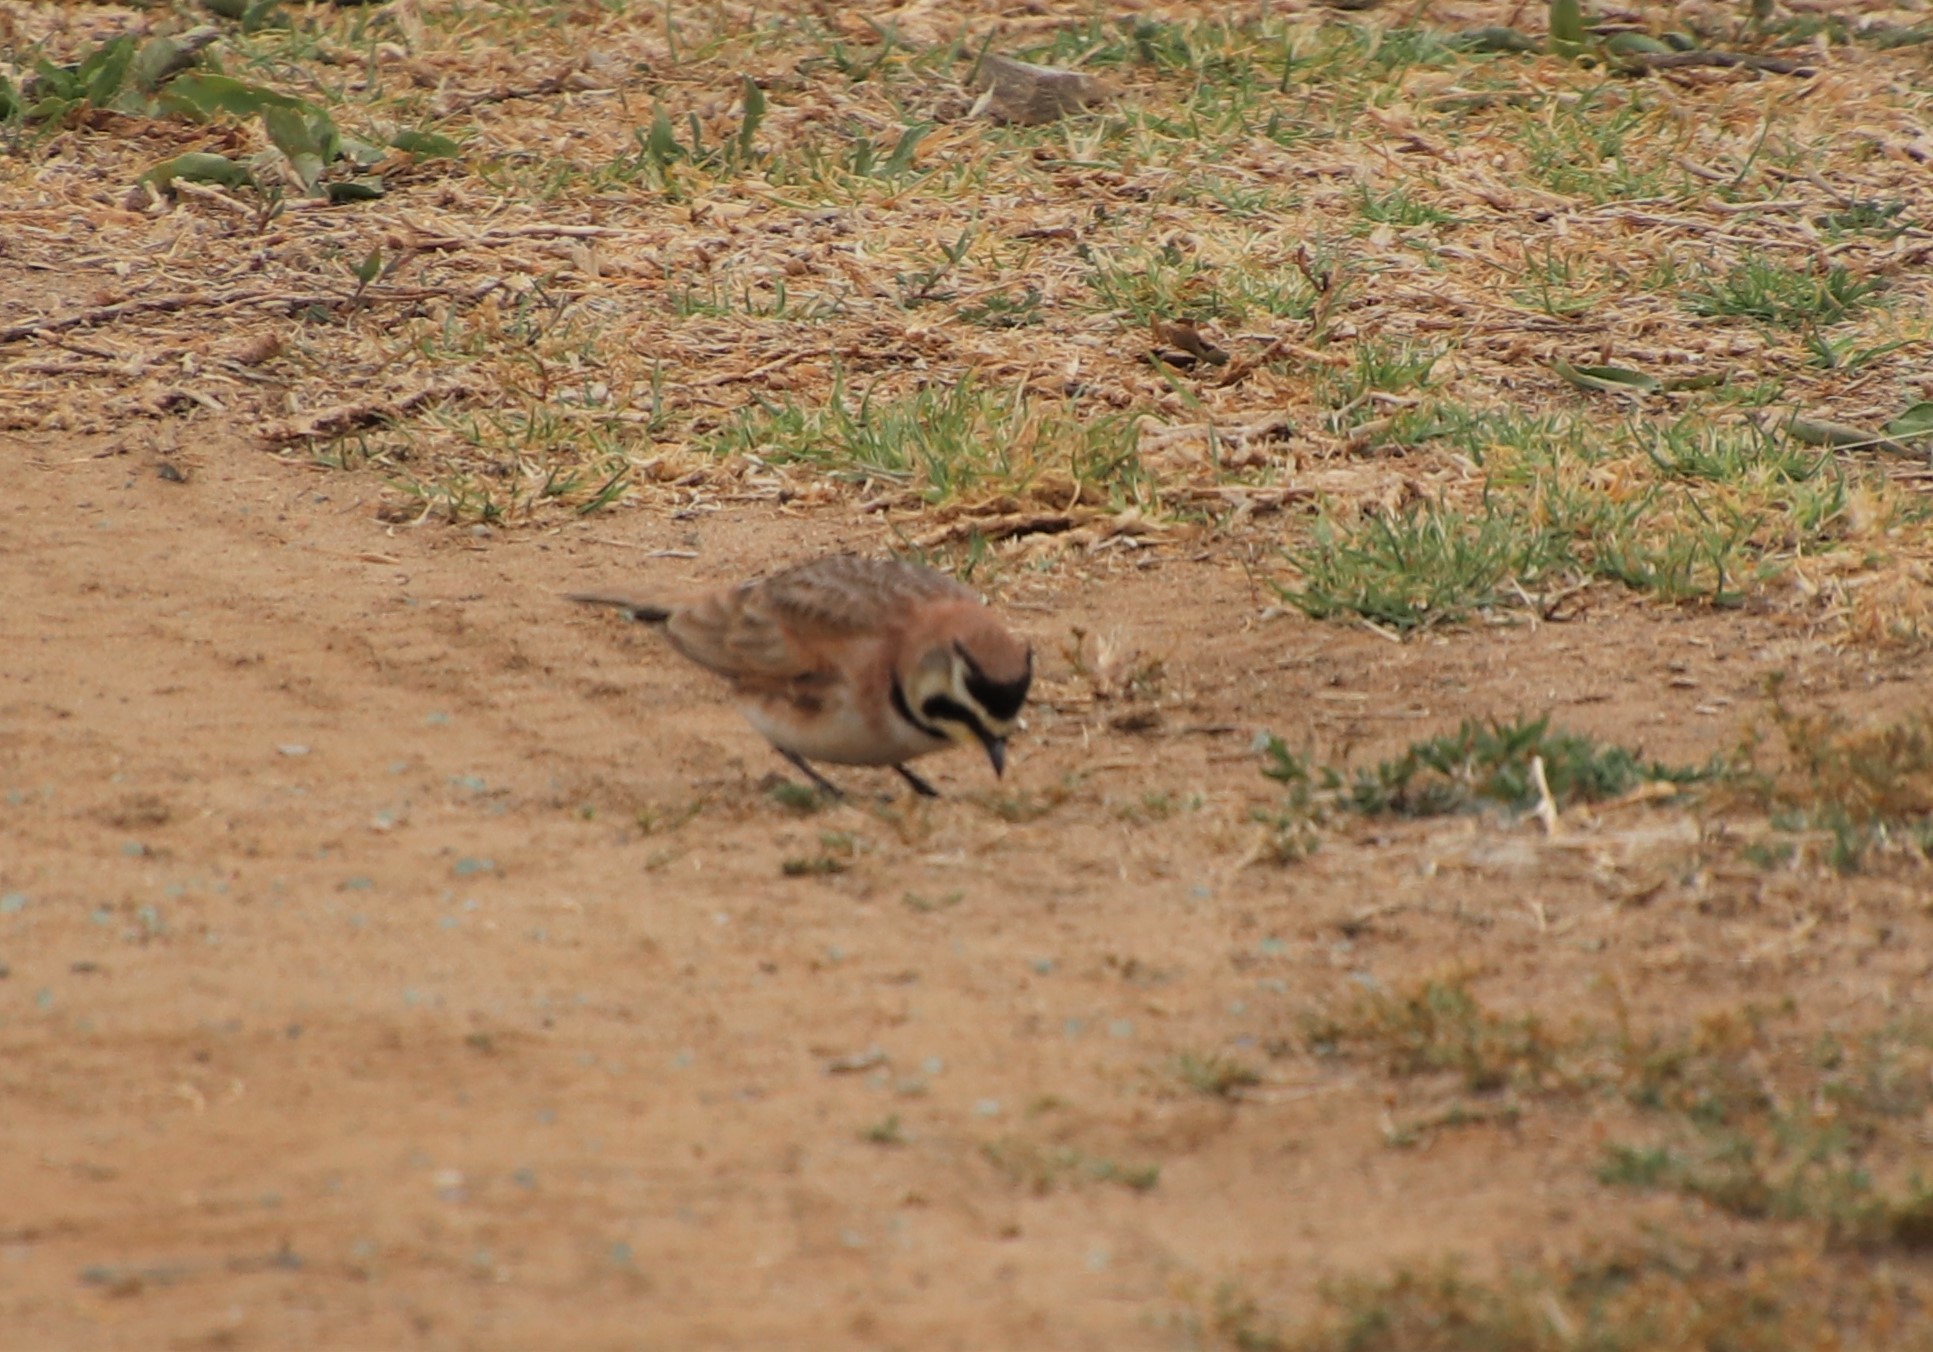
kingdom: Animalia
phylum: Chordata
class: Aves
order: Passeriformes
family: Alaudidae
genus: Eremophila
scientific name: Eremophila alpestris
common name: Horned lark
